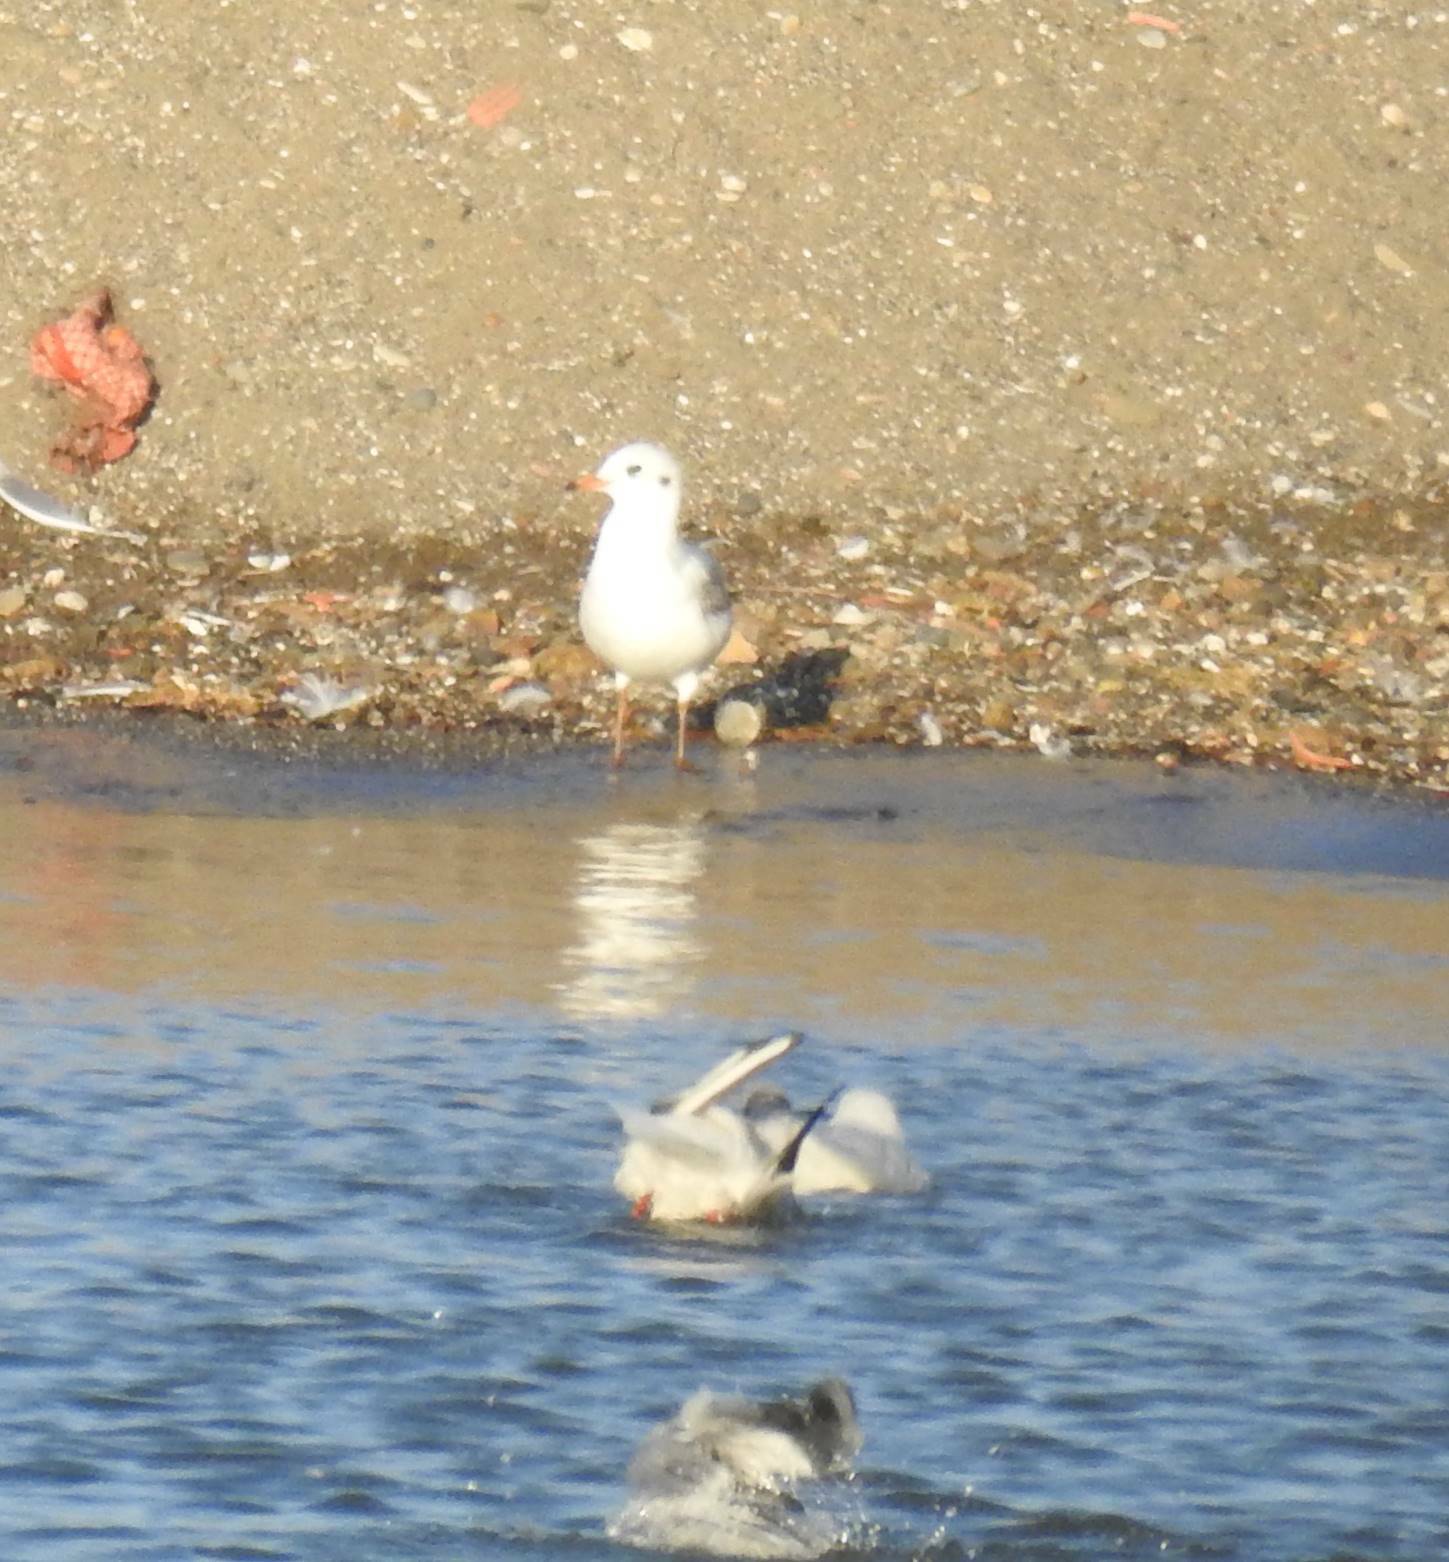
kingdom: Animalia
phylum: Chordata
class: Aves
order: Charadriiformes
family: Laridae
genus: Chroicocephalus
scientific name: Chroicocephalus ridibundus
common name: Black-headed gull
